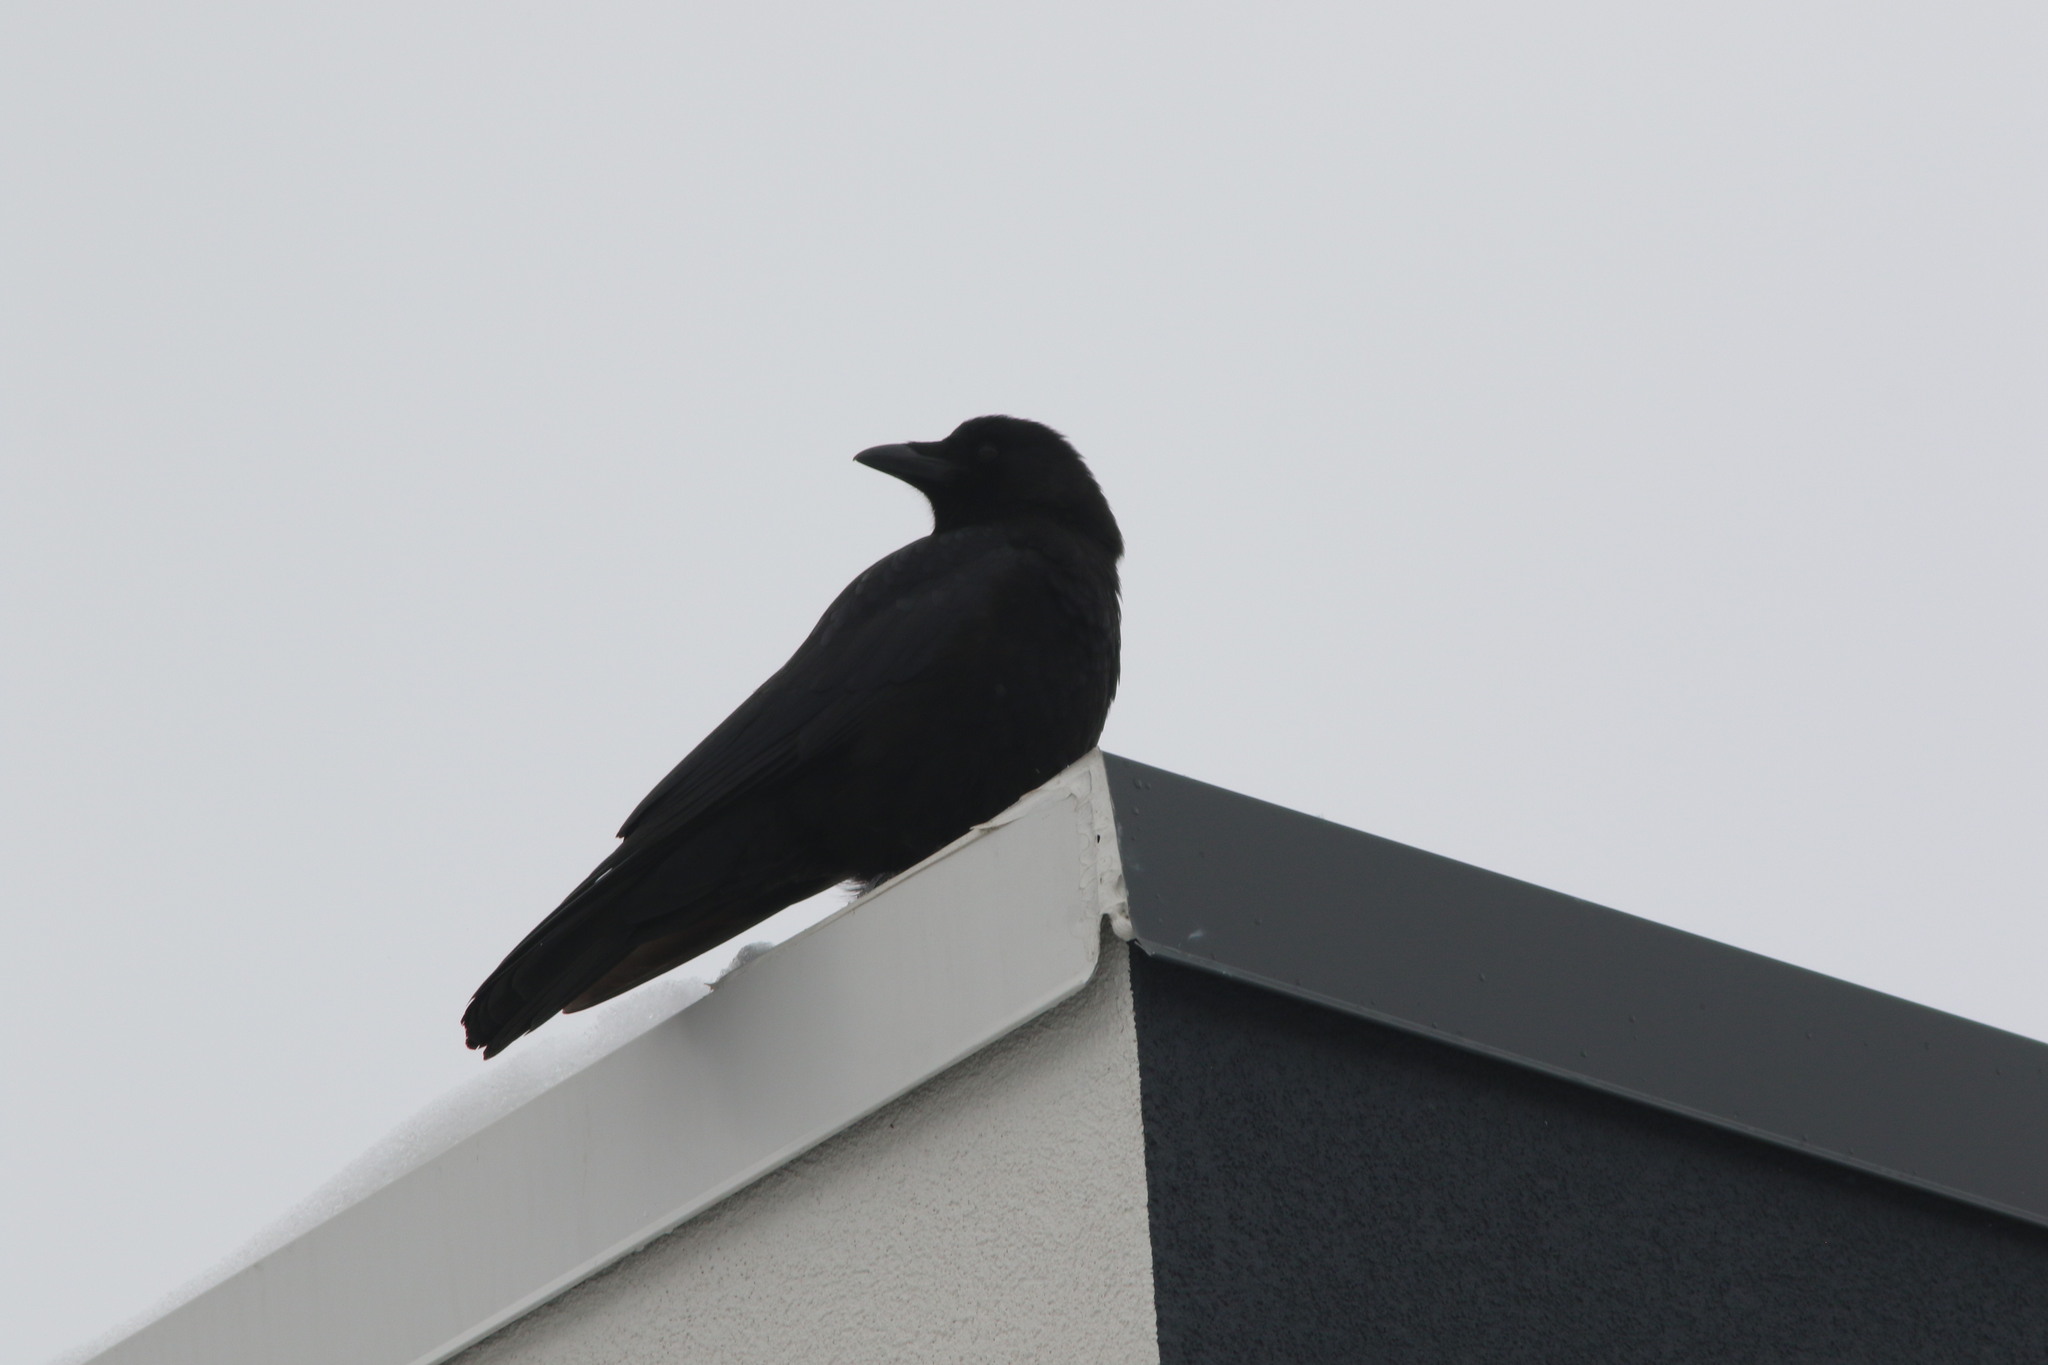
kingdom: Animalia
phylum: Chordata
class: Aves
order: Passeriformes
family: Corvidae
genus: Corvus
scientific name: Corvus brachyrhynchos
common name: American crow
